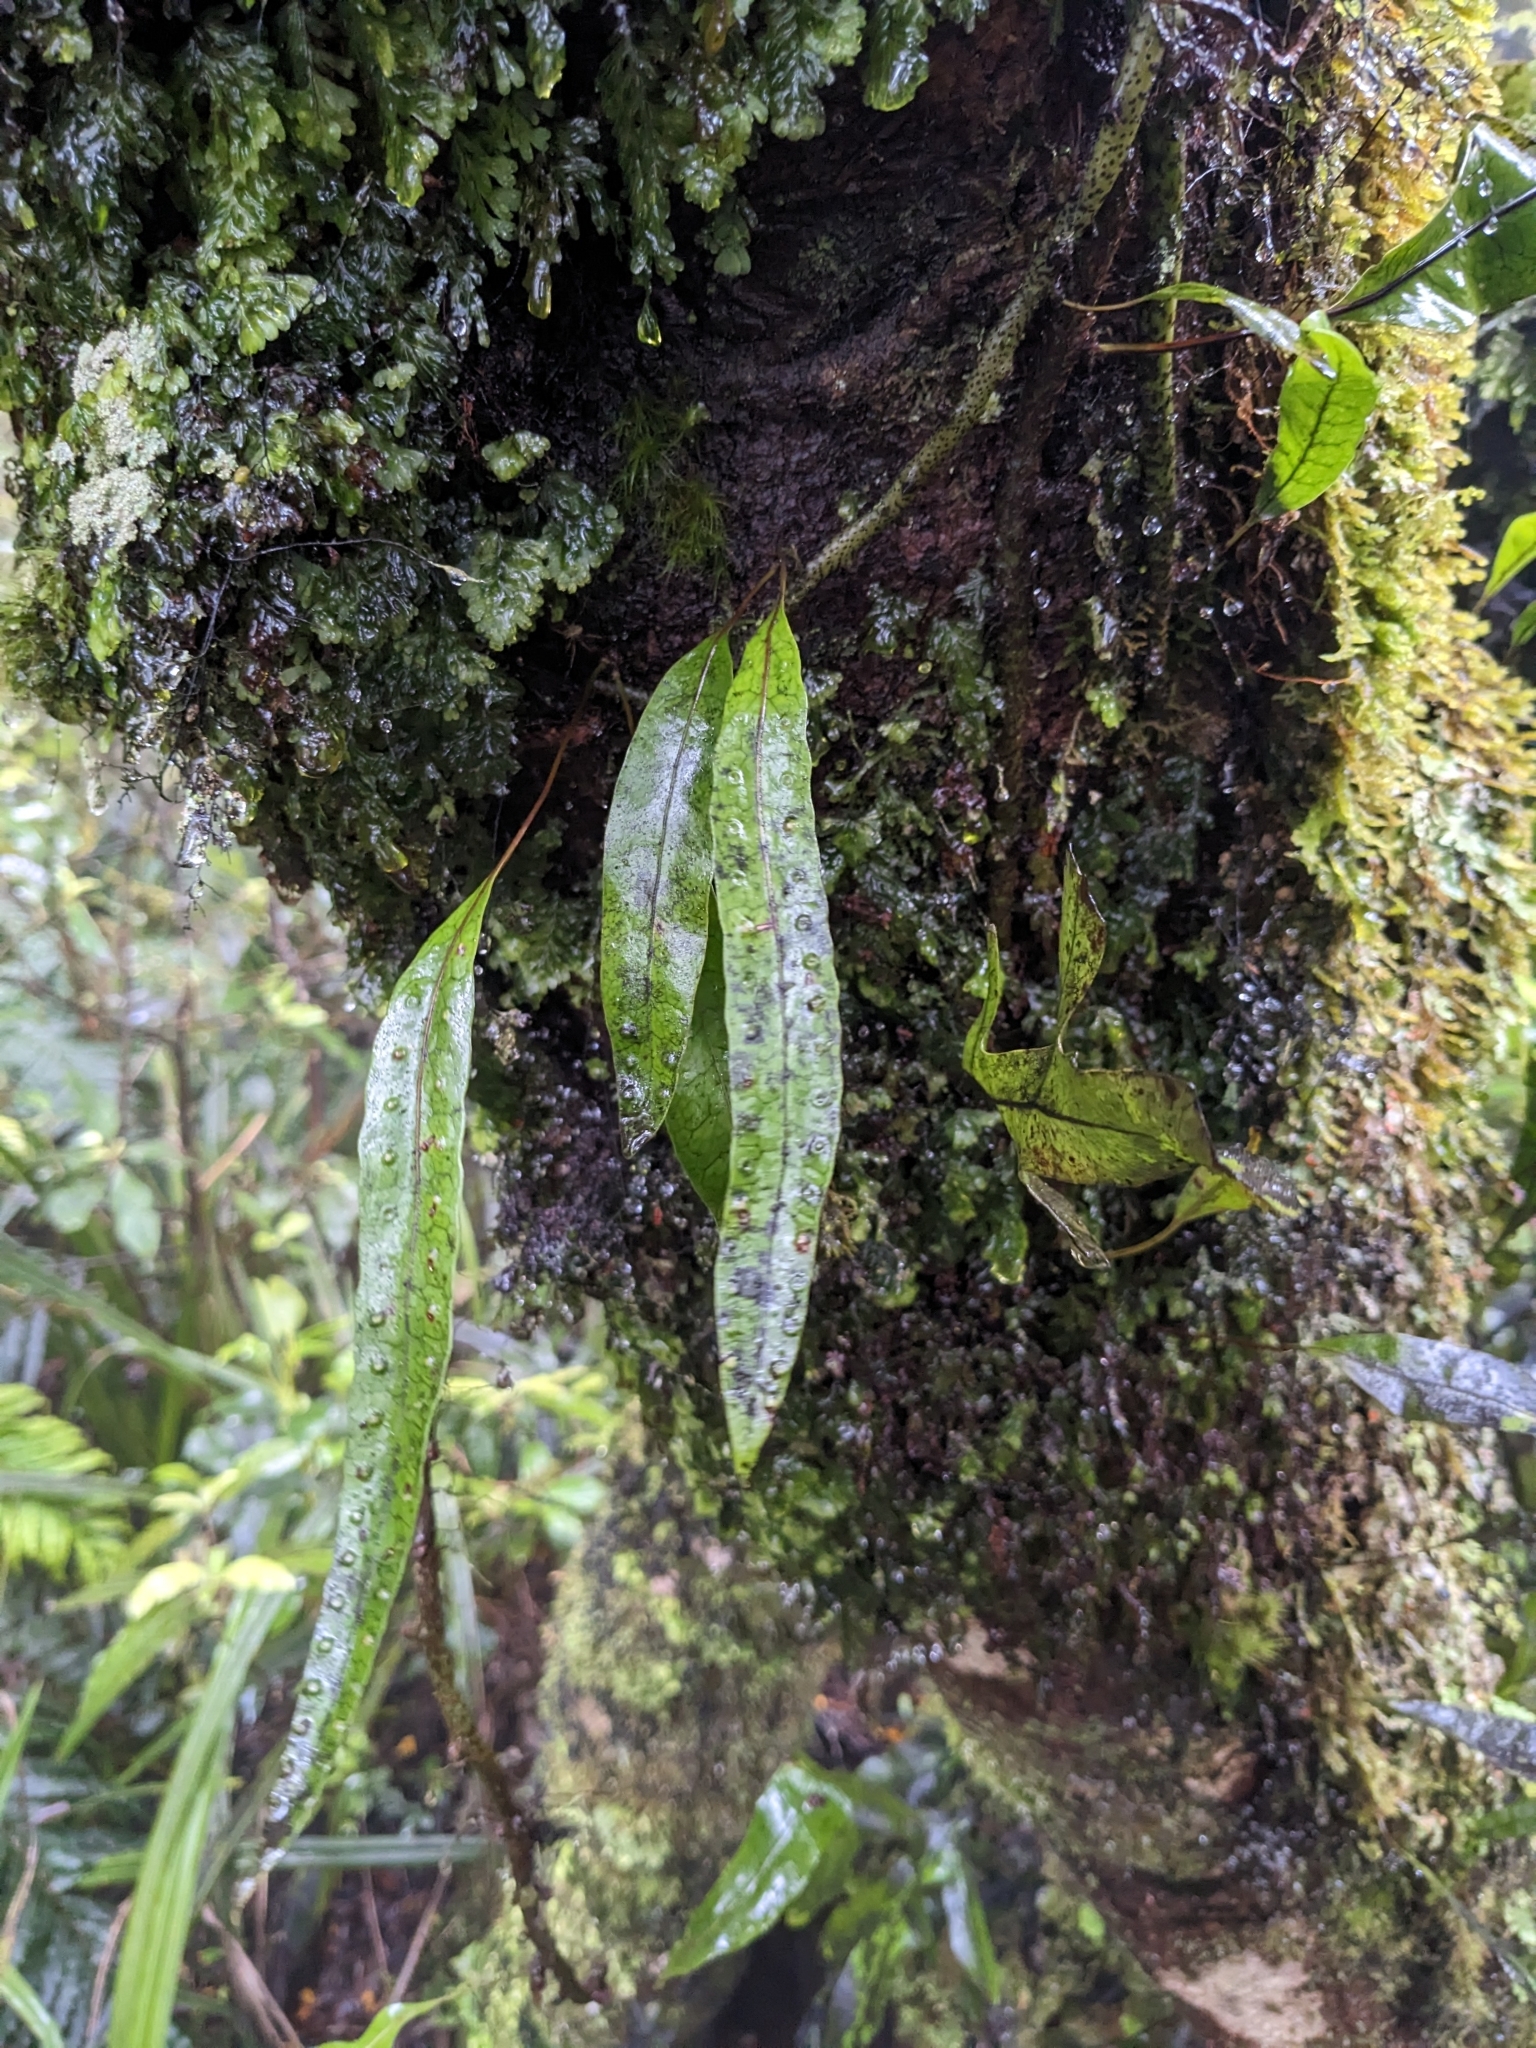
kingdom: Plantae
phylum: Tracheophyta
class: Polypodiopsida
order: Polypodiales
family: Polypodiaceae
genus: Lecanopteris
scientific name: Lecanopteris pustulata
